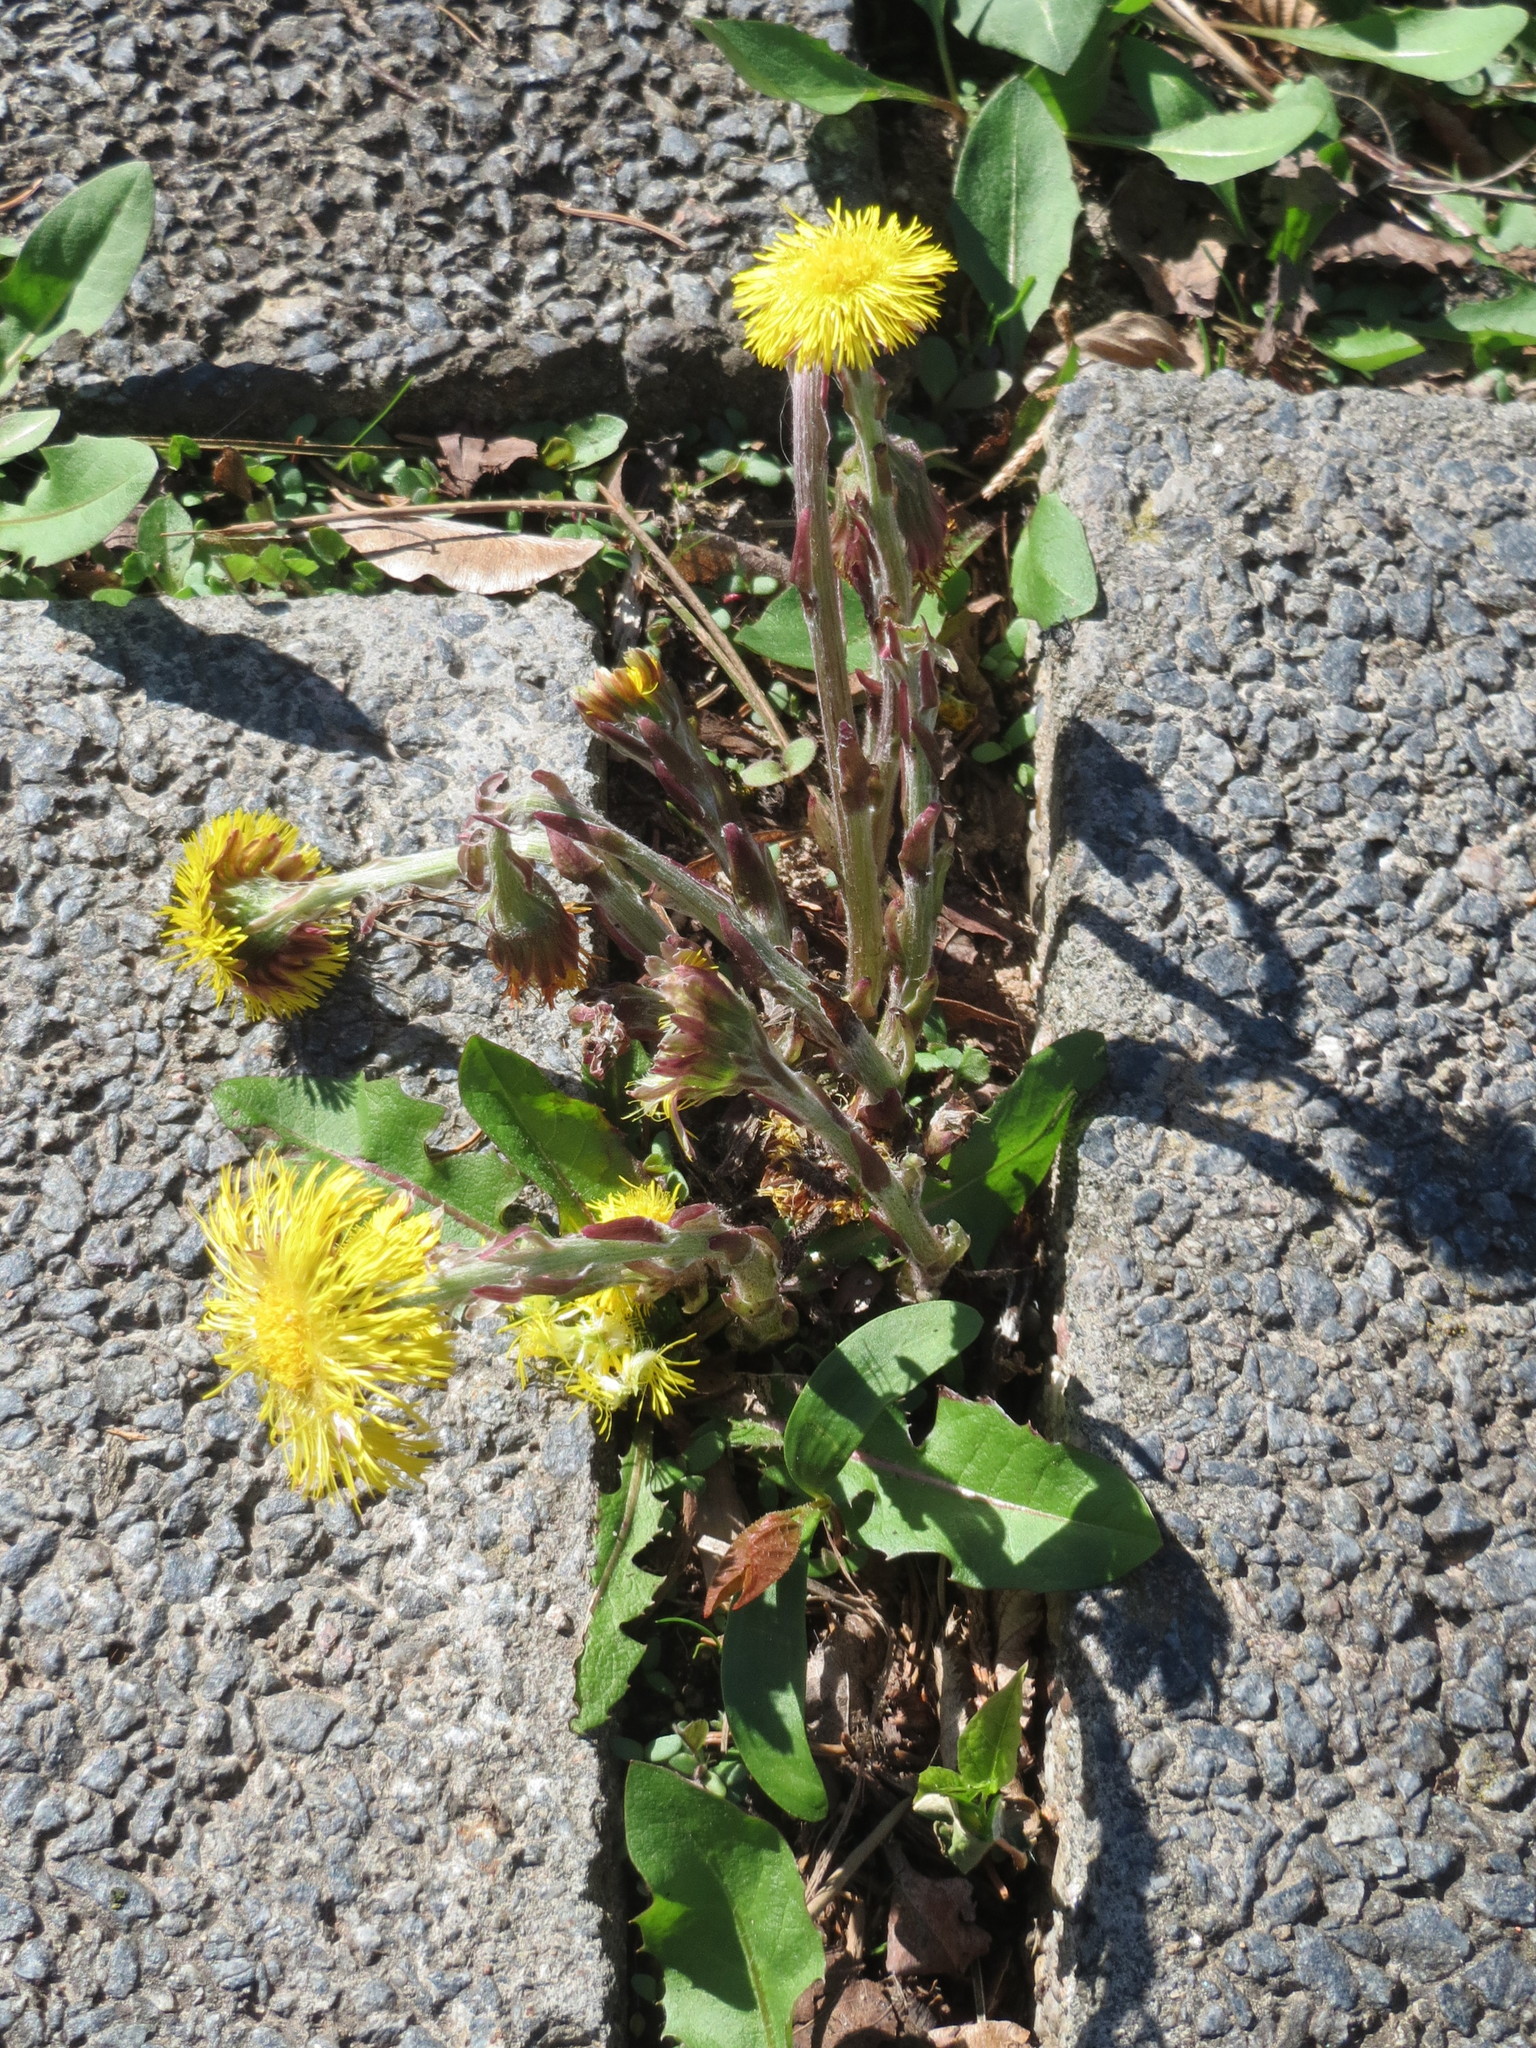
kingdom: Plantae
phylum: Tracheophyta
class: Magnoliopsida
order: Asterales
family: Asteraceae
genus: Tussilago
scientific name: Tussilago farfara
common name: Coltsfoot
